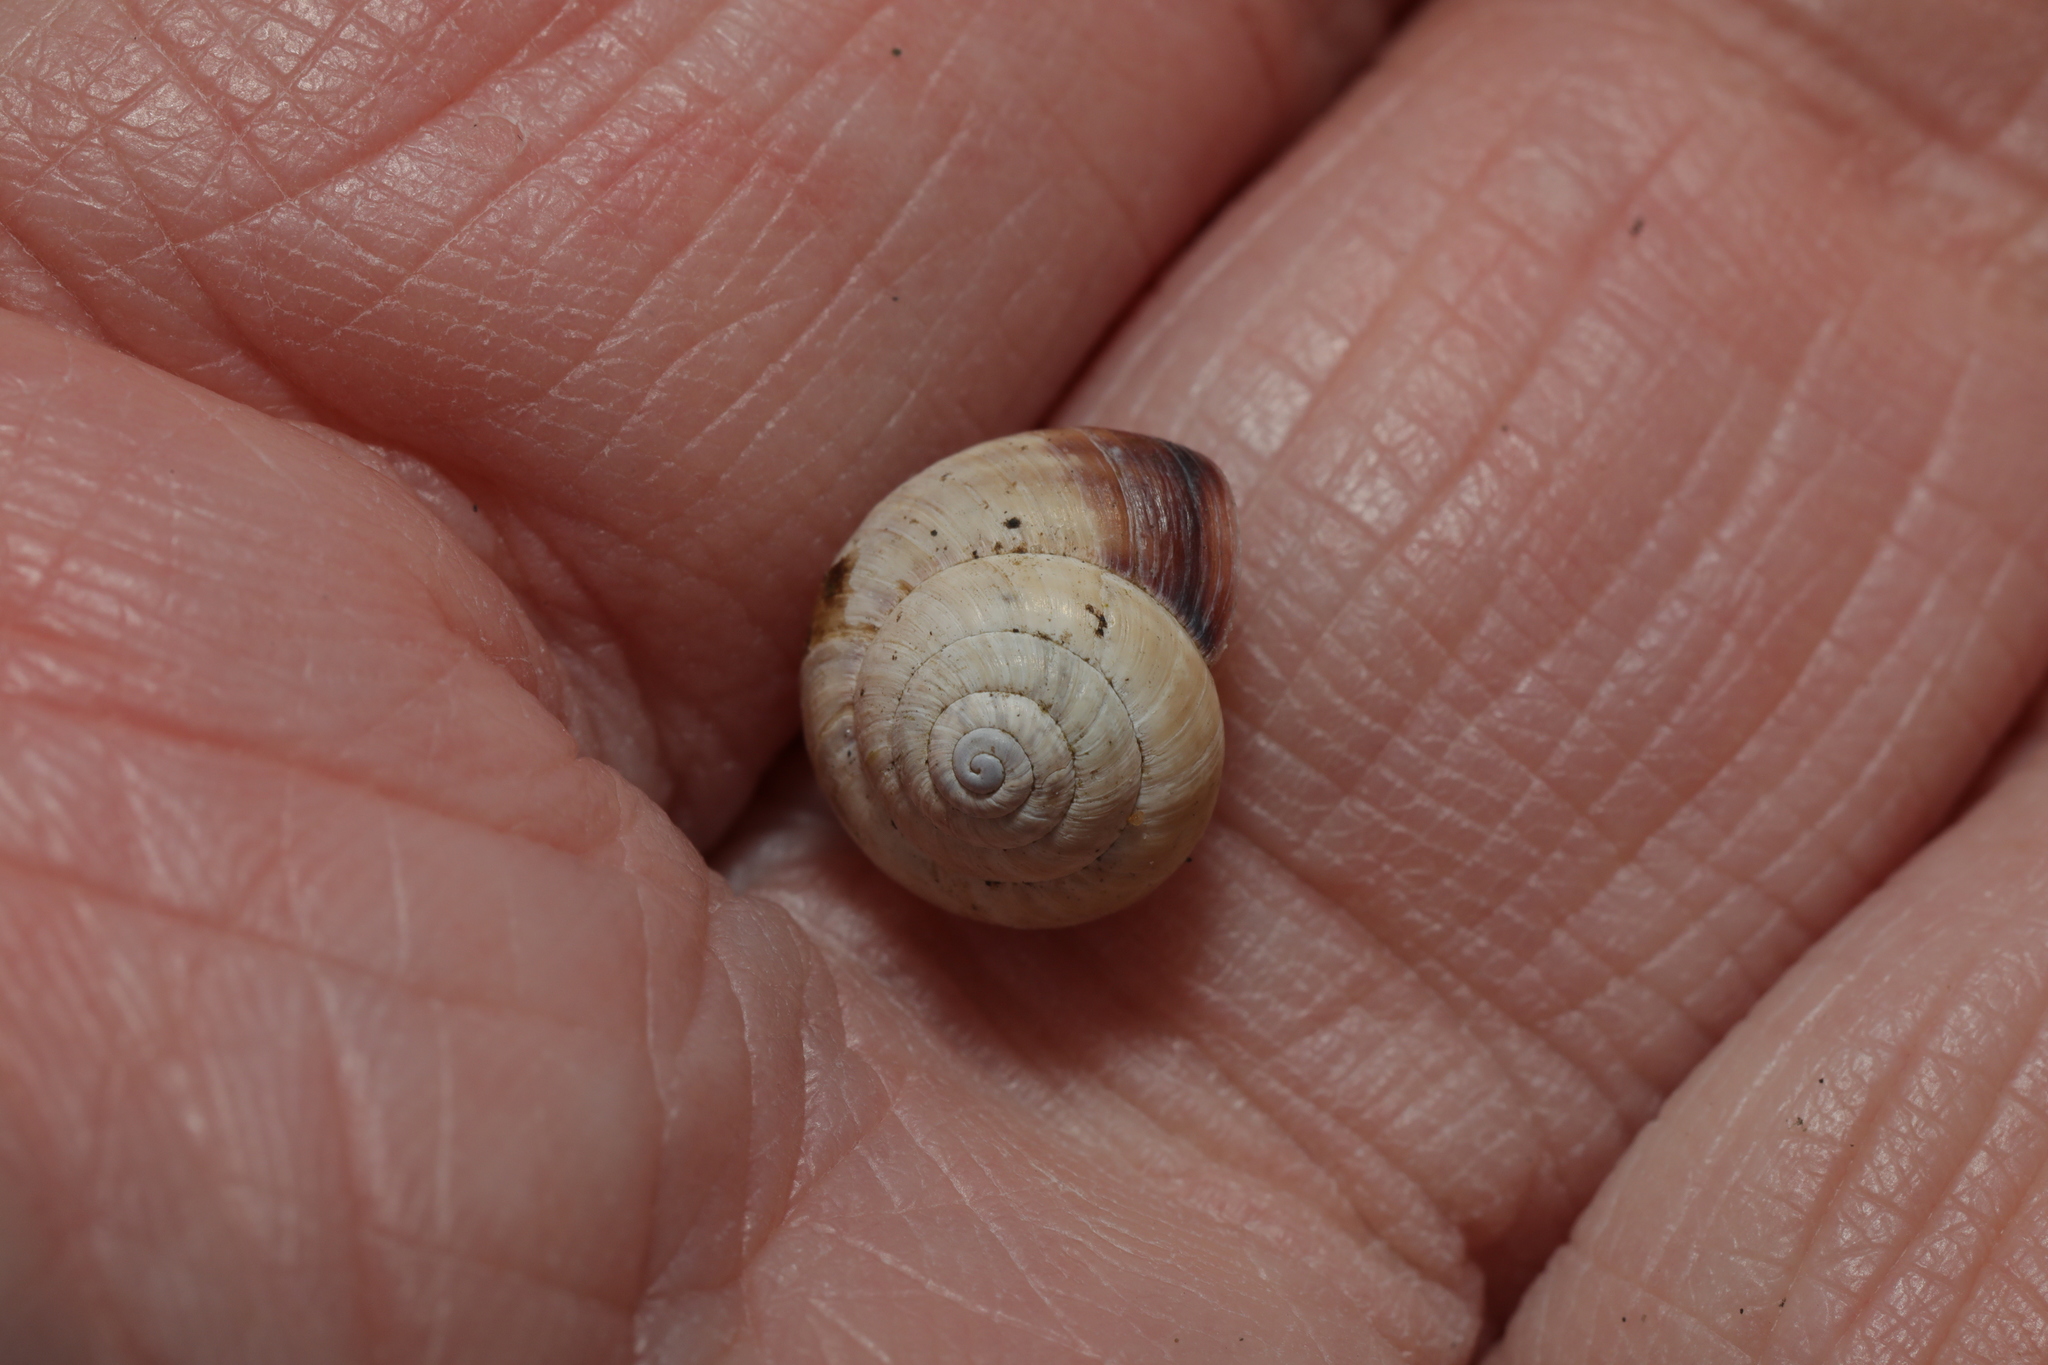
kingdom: Animalia
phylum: Mollusca
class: Gastropoda
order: Stylommatophora
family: Geomitridae
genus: Cernuella
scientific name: Cernuella virgata
